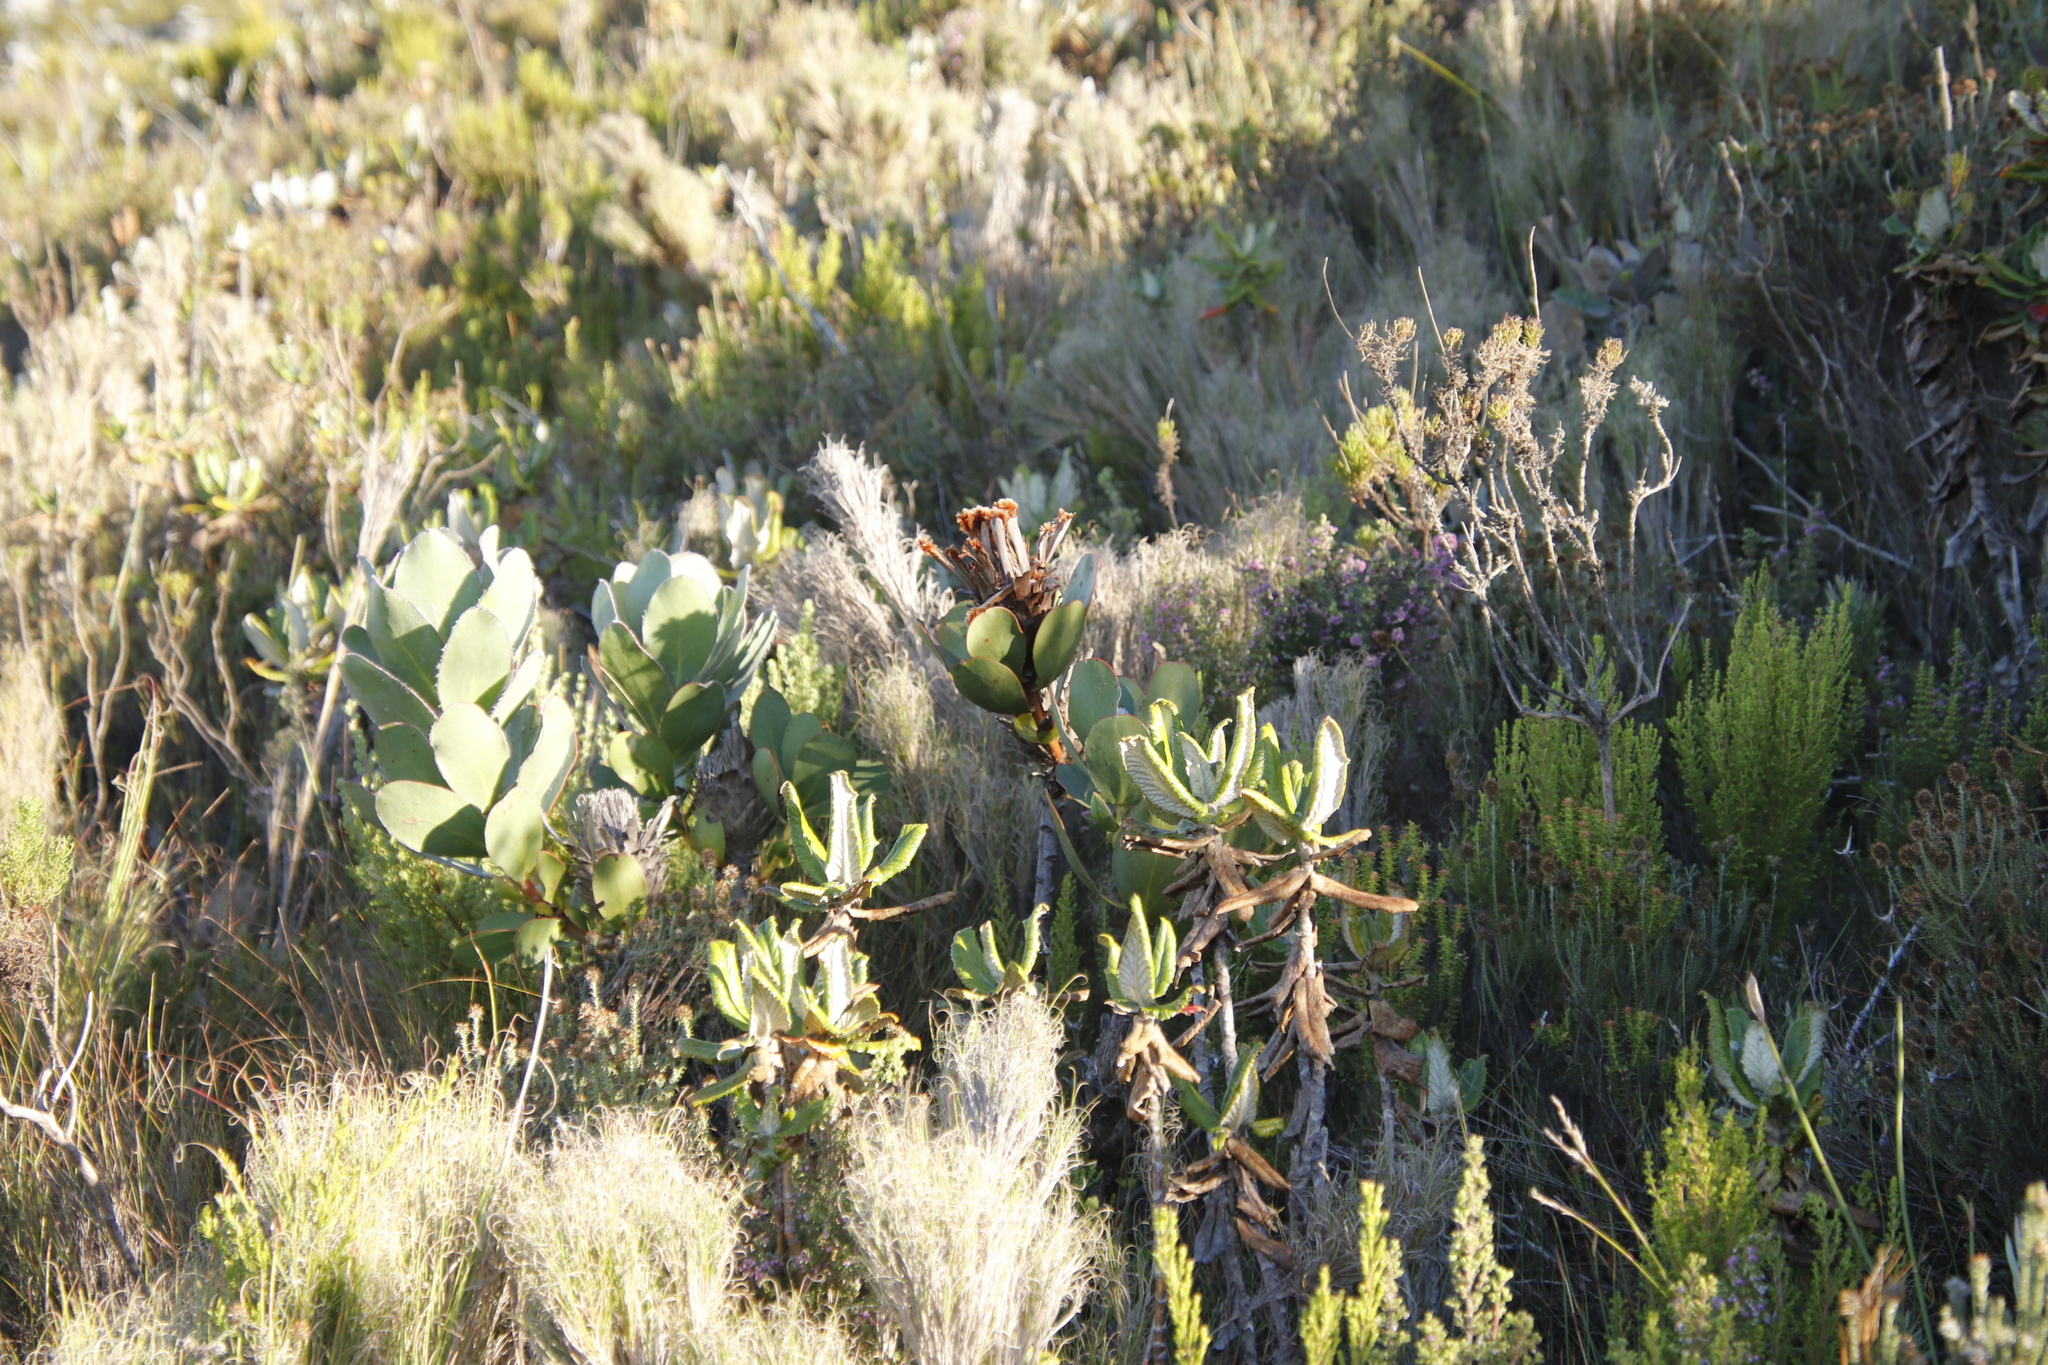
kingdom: Plantae
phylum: Tracheophyta
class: Magnoliopsida
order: Proteales
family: Proteaceae
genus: Protea
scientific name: Protea speciosa
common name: Brown-beard sugarbush
